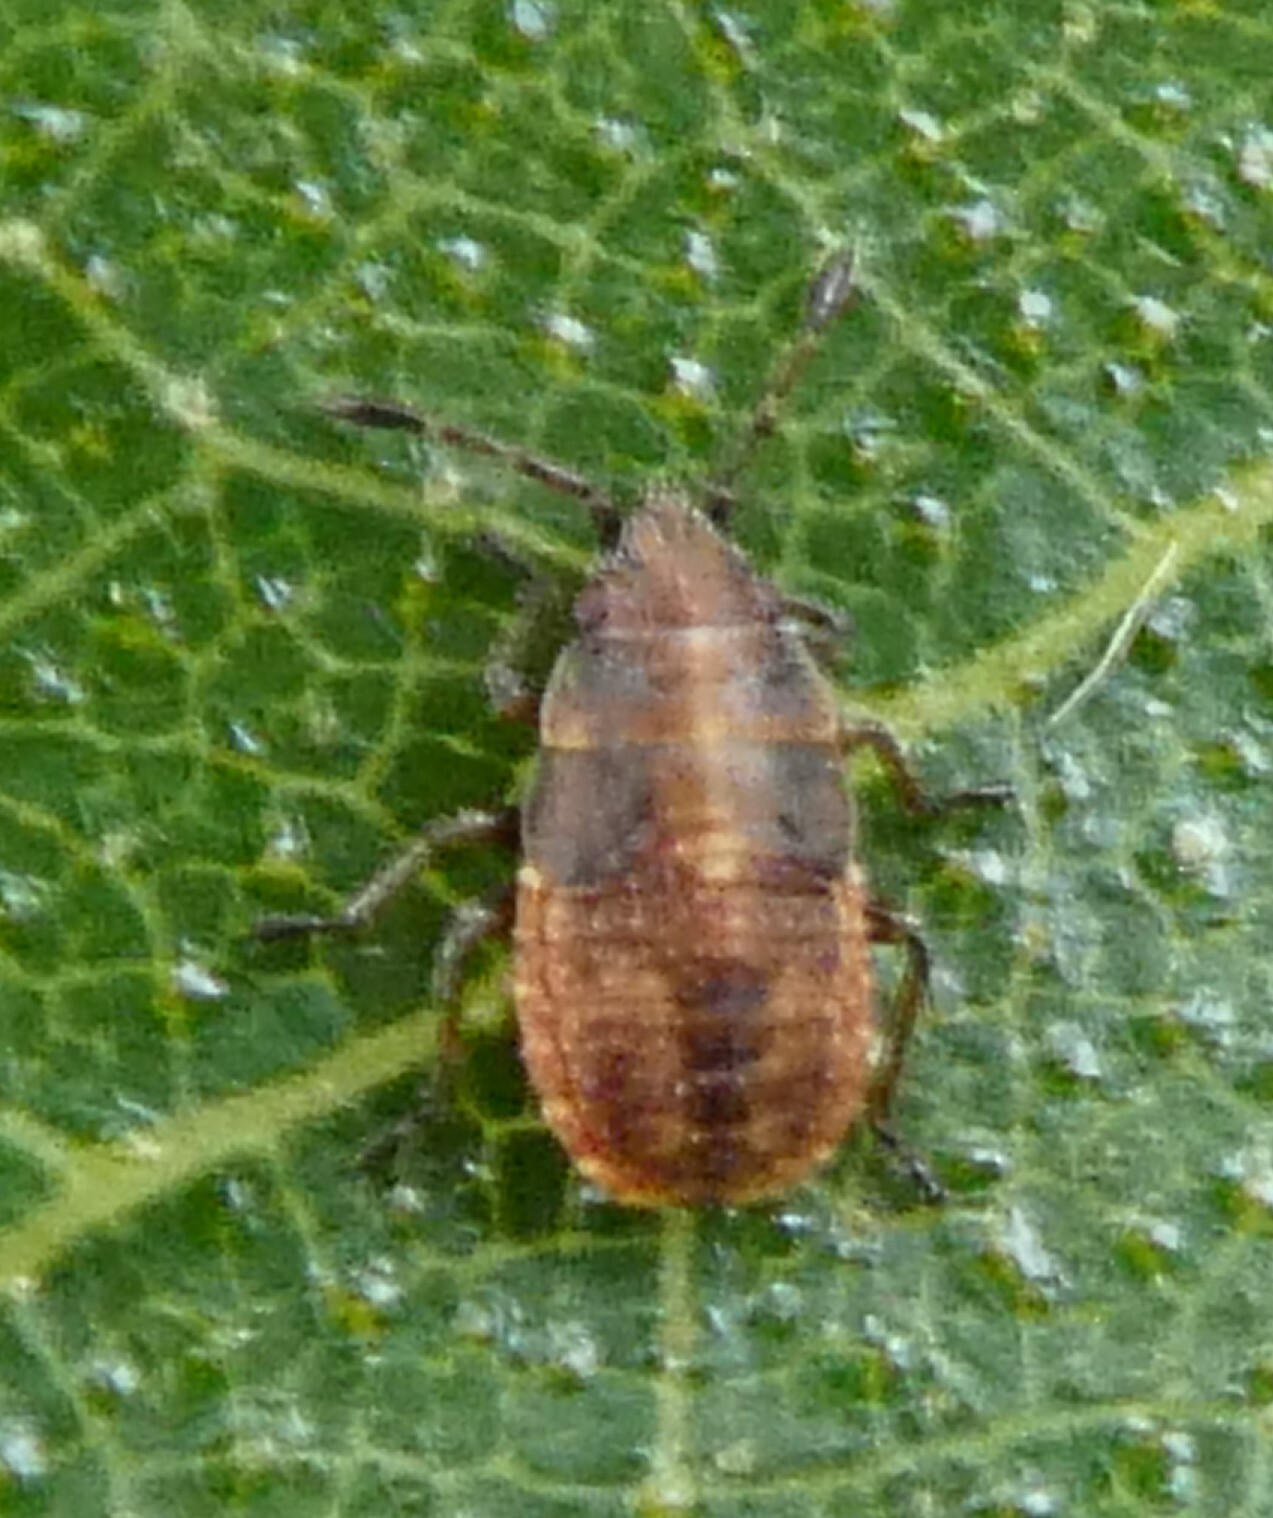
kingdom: Animalia
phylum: Arthropoda
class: Insecta
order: Hemiptera
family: Lygaeidae
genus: Kleidocerys
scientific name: Kleidocerys resedae
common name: Birch catkin bug
